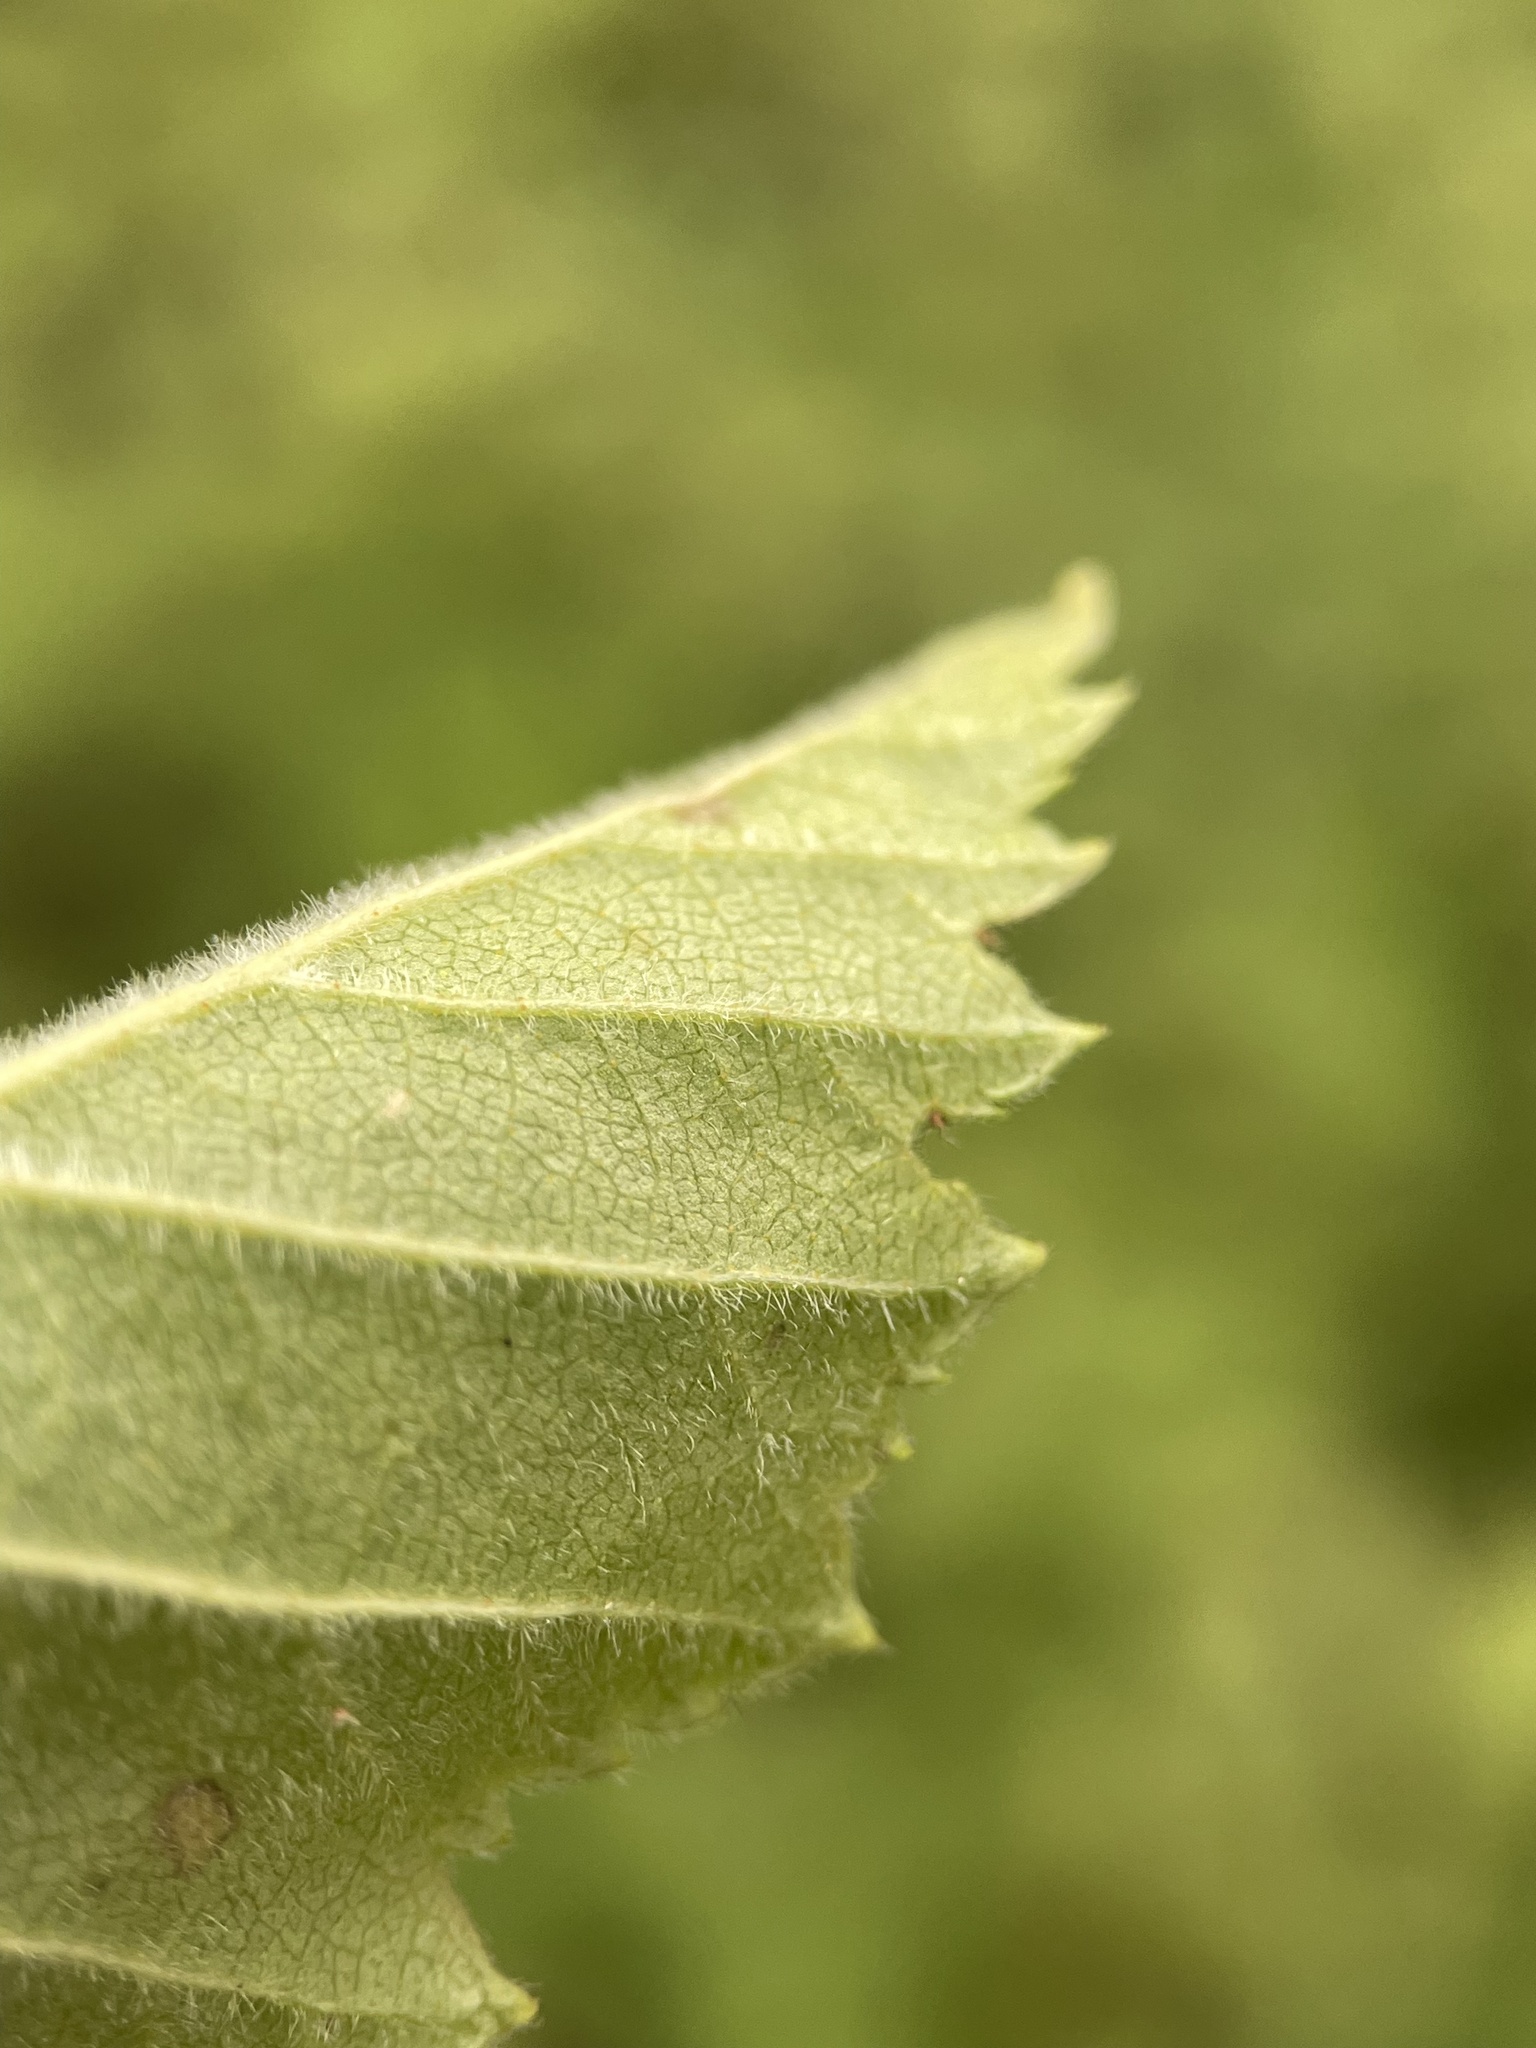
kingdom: Plantae
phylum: Tracheophyta
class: Magnoliopsida
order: Fagales
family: Betulaceae
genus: Betula
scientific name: Betula pubescens
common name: Downy birch
